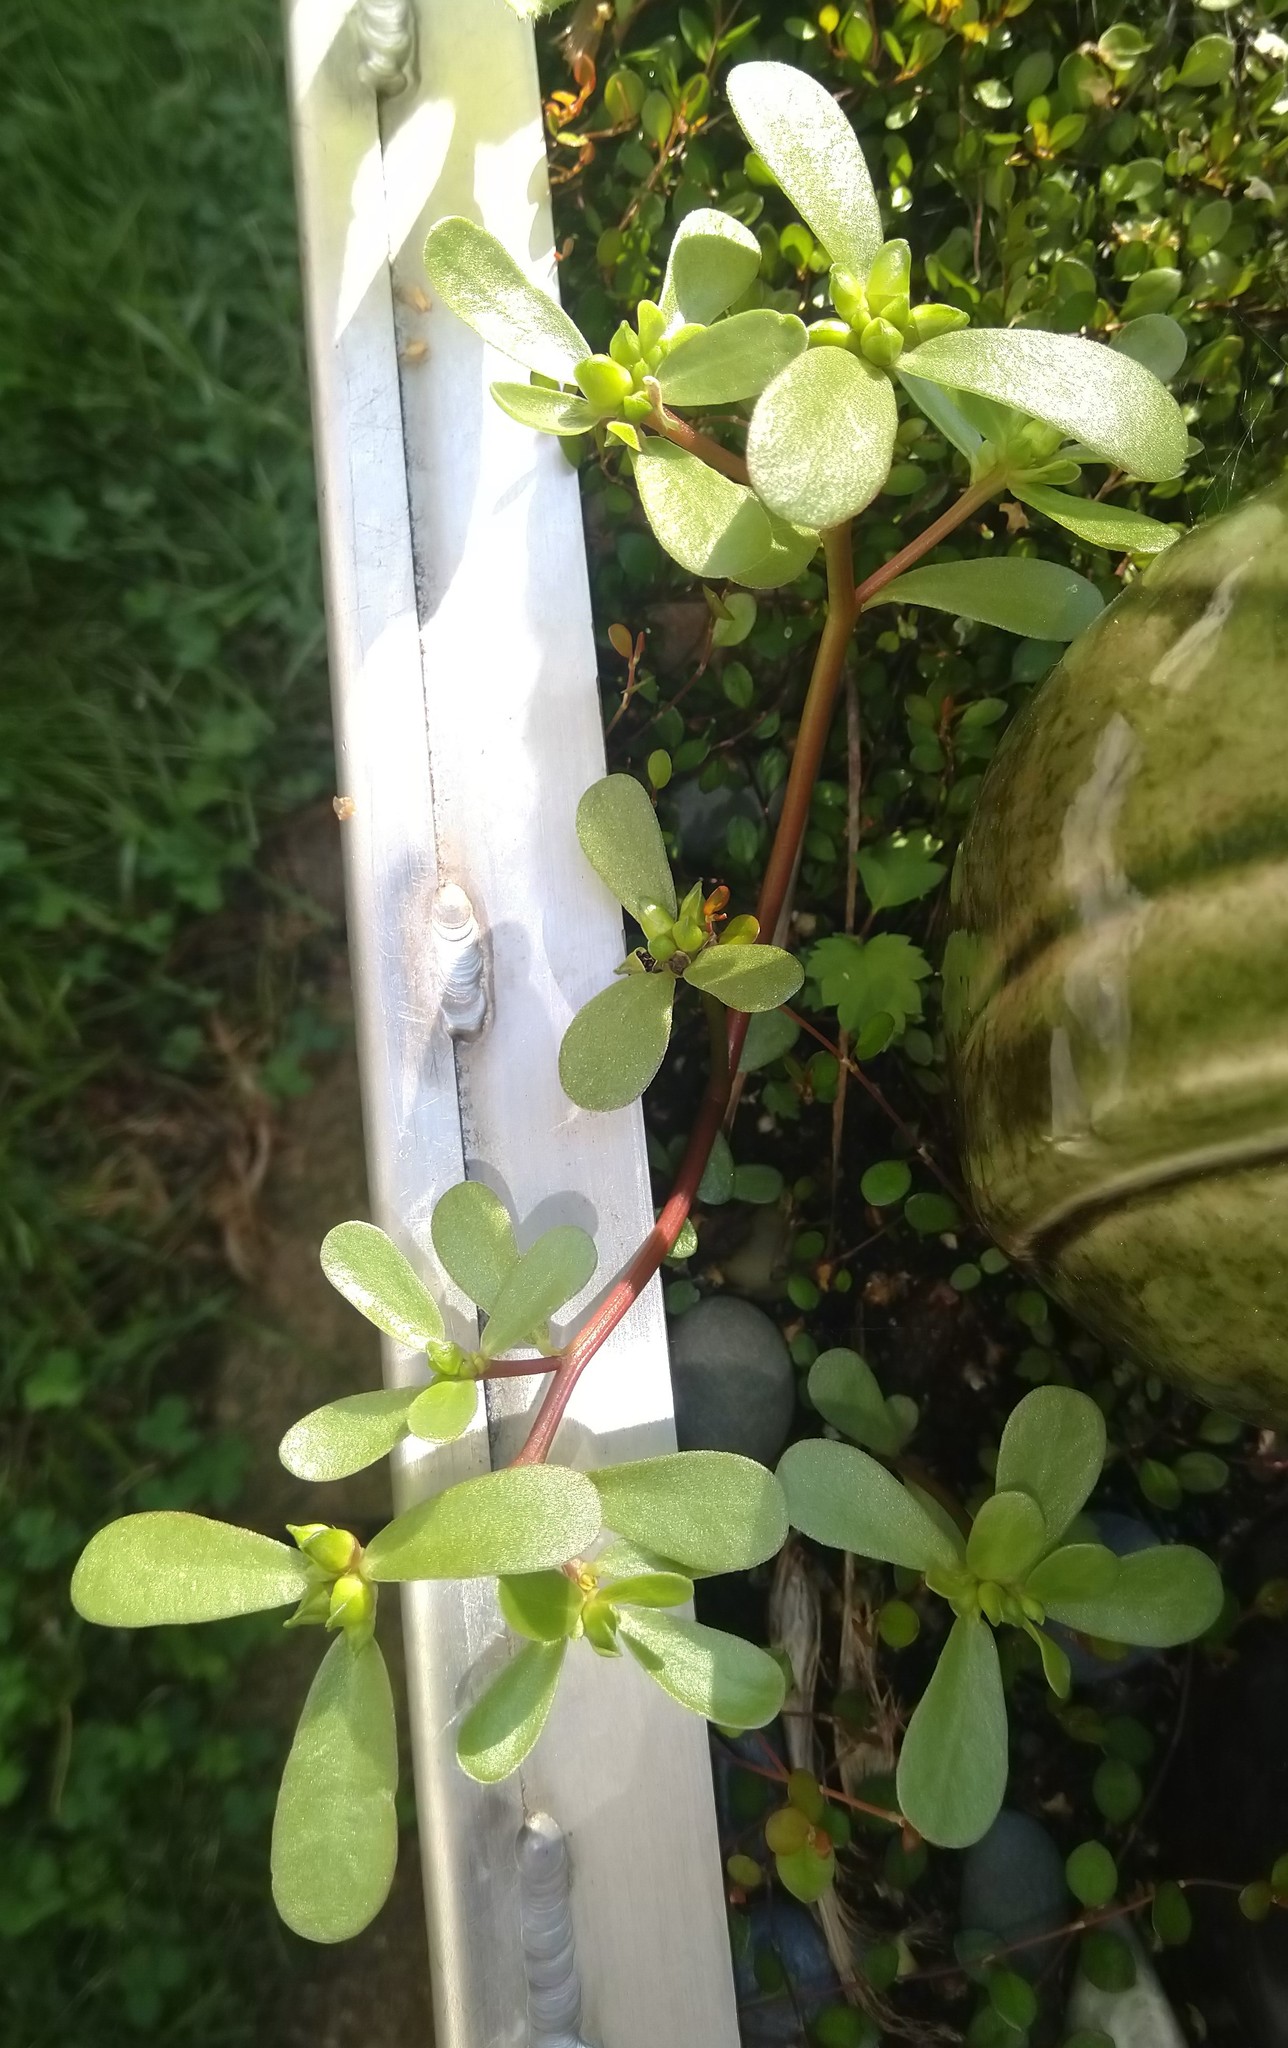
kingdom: Plantae
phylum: Tracheophyta
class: Magnoliopsida
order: Caryophyllales
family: Portulacaceae
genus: Portulaca
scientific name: Portulaca oleracea
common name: Common purslane
